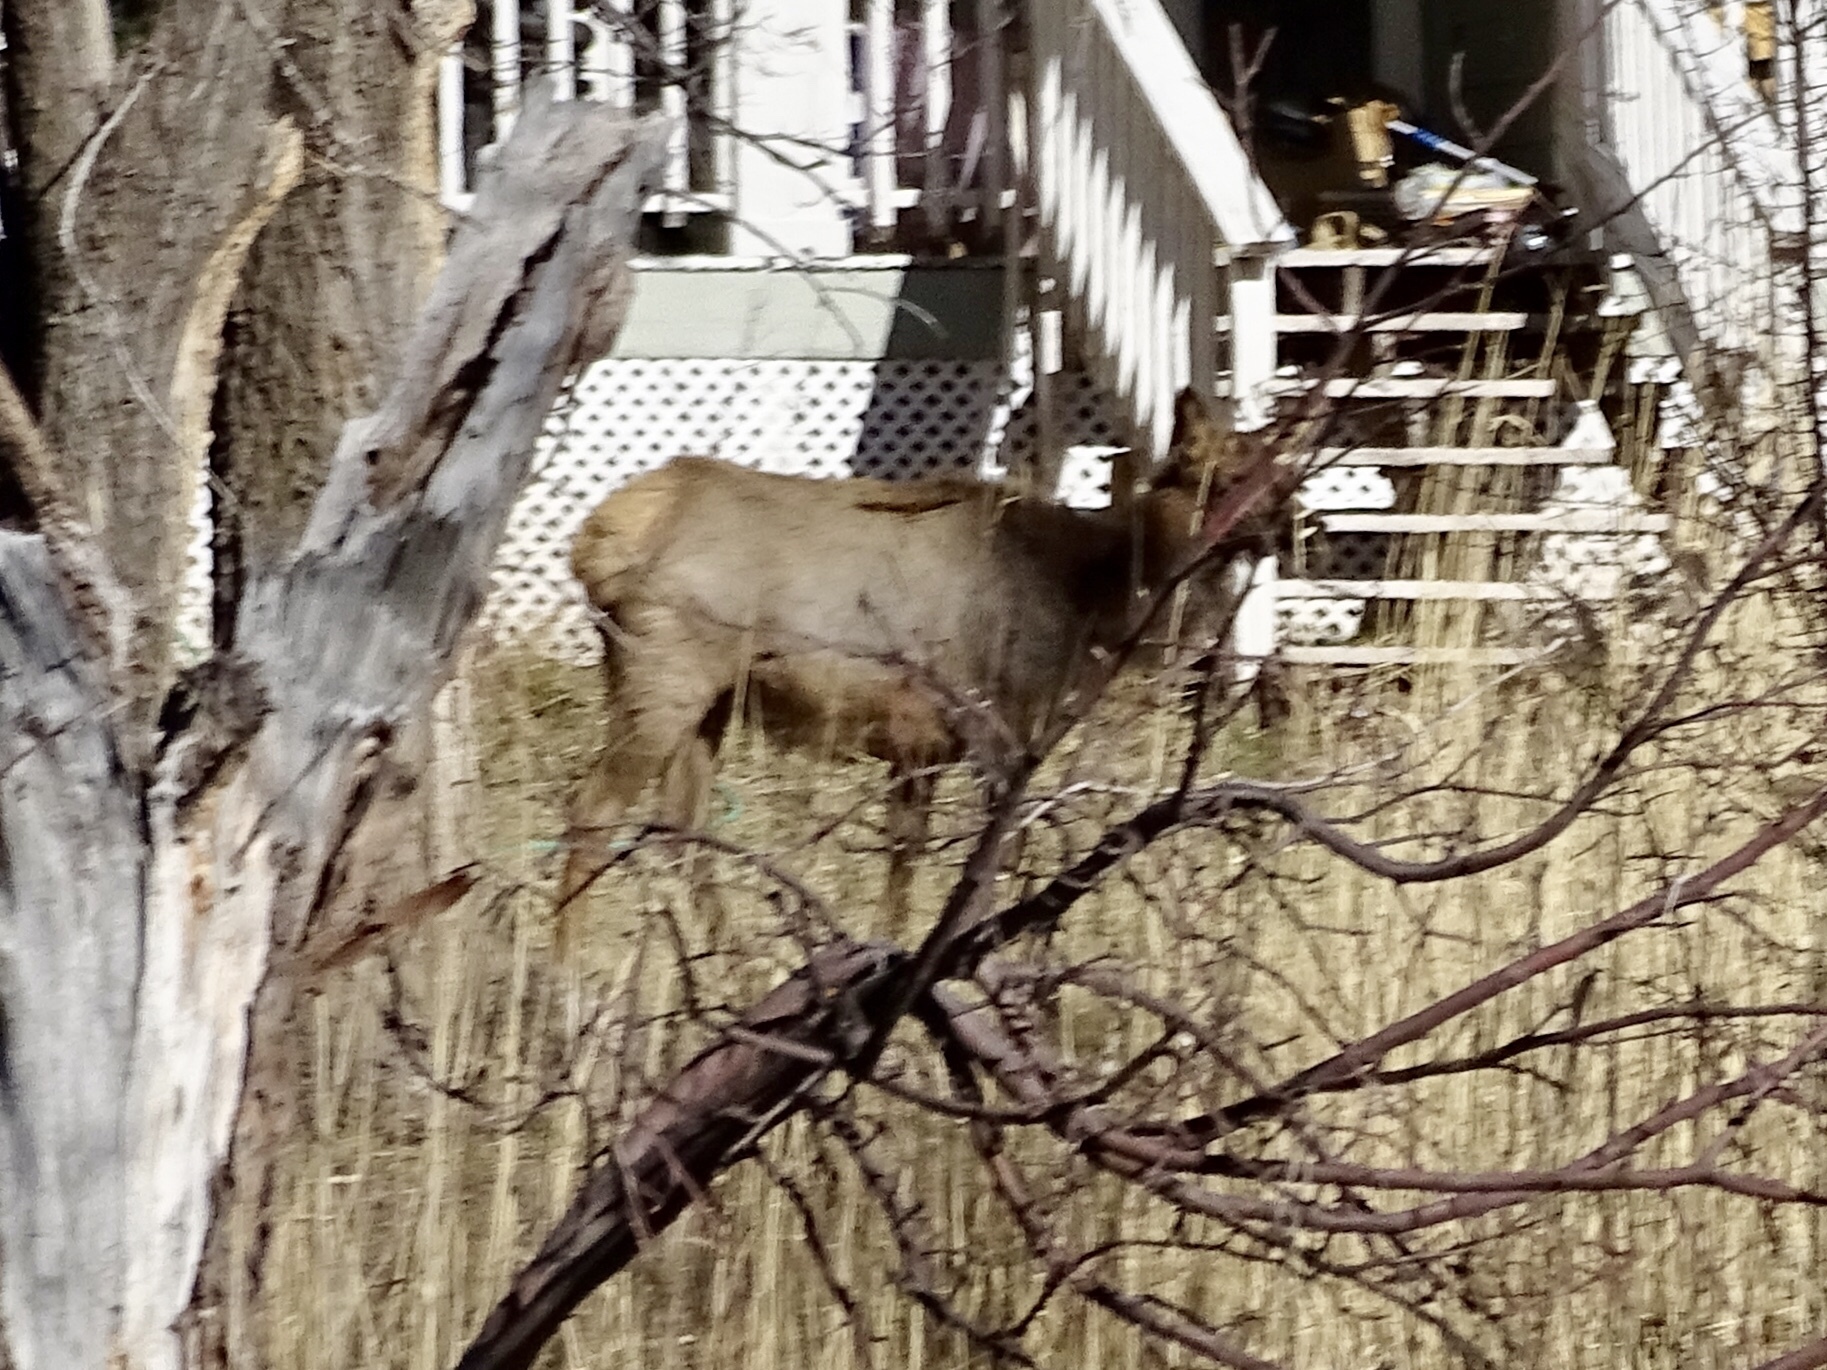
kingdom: Animalia
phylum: Chordata
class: Mammalia
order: Artiodactyla
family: Cervidae
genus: Cervus
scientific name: Cervus elaphus
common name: Red deer
